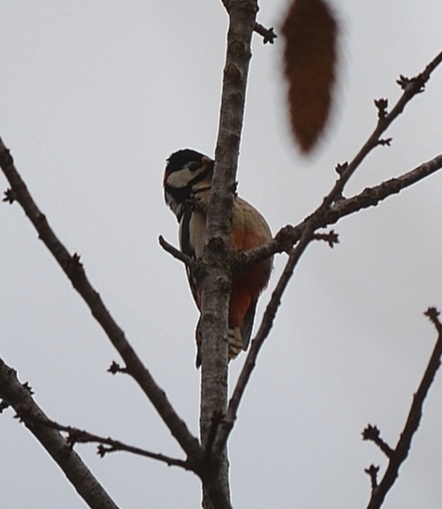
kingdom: Animalia
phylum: Chordata
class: Aves
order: Piciformes
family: Picidae
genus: Dendrocopos
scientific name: Dendrocopos major
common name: Great spotted woodpecker
